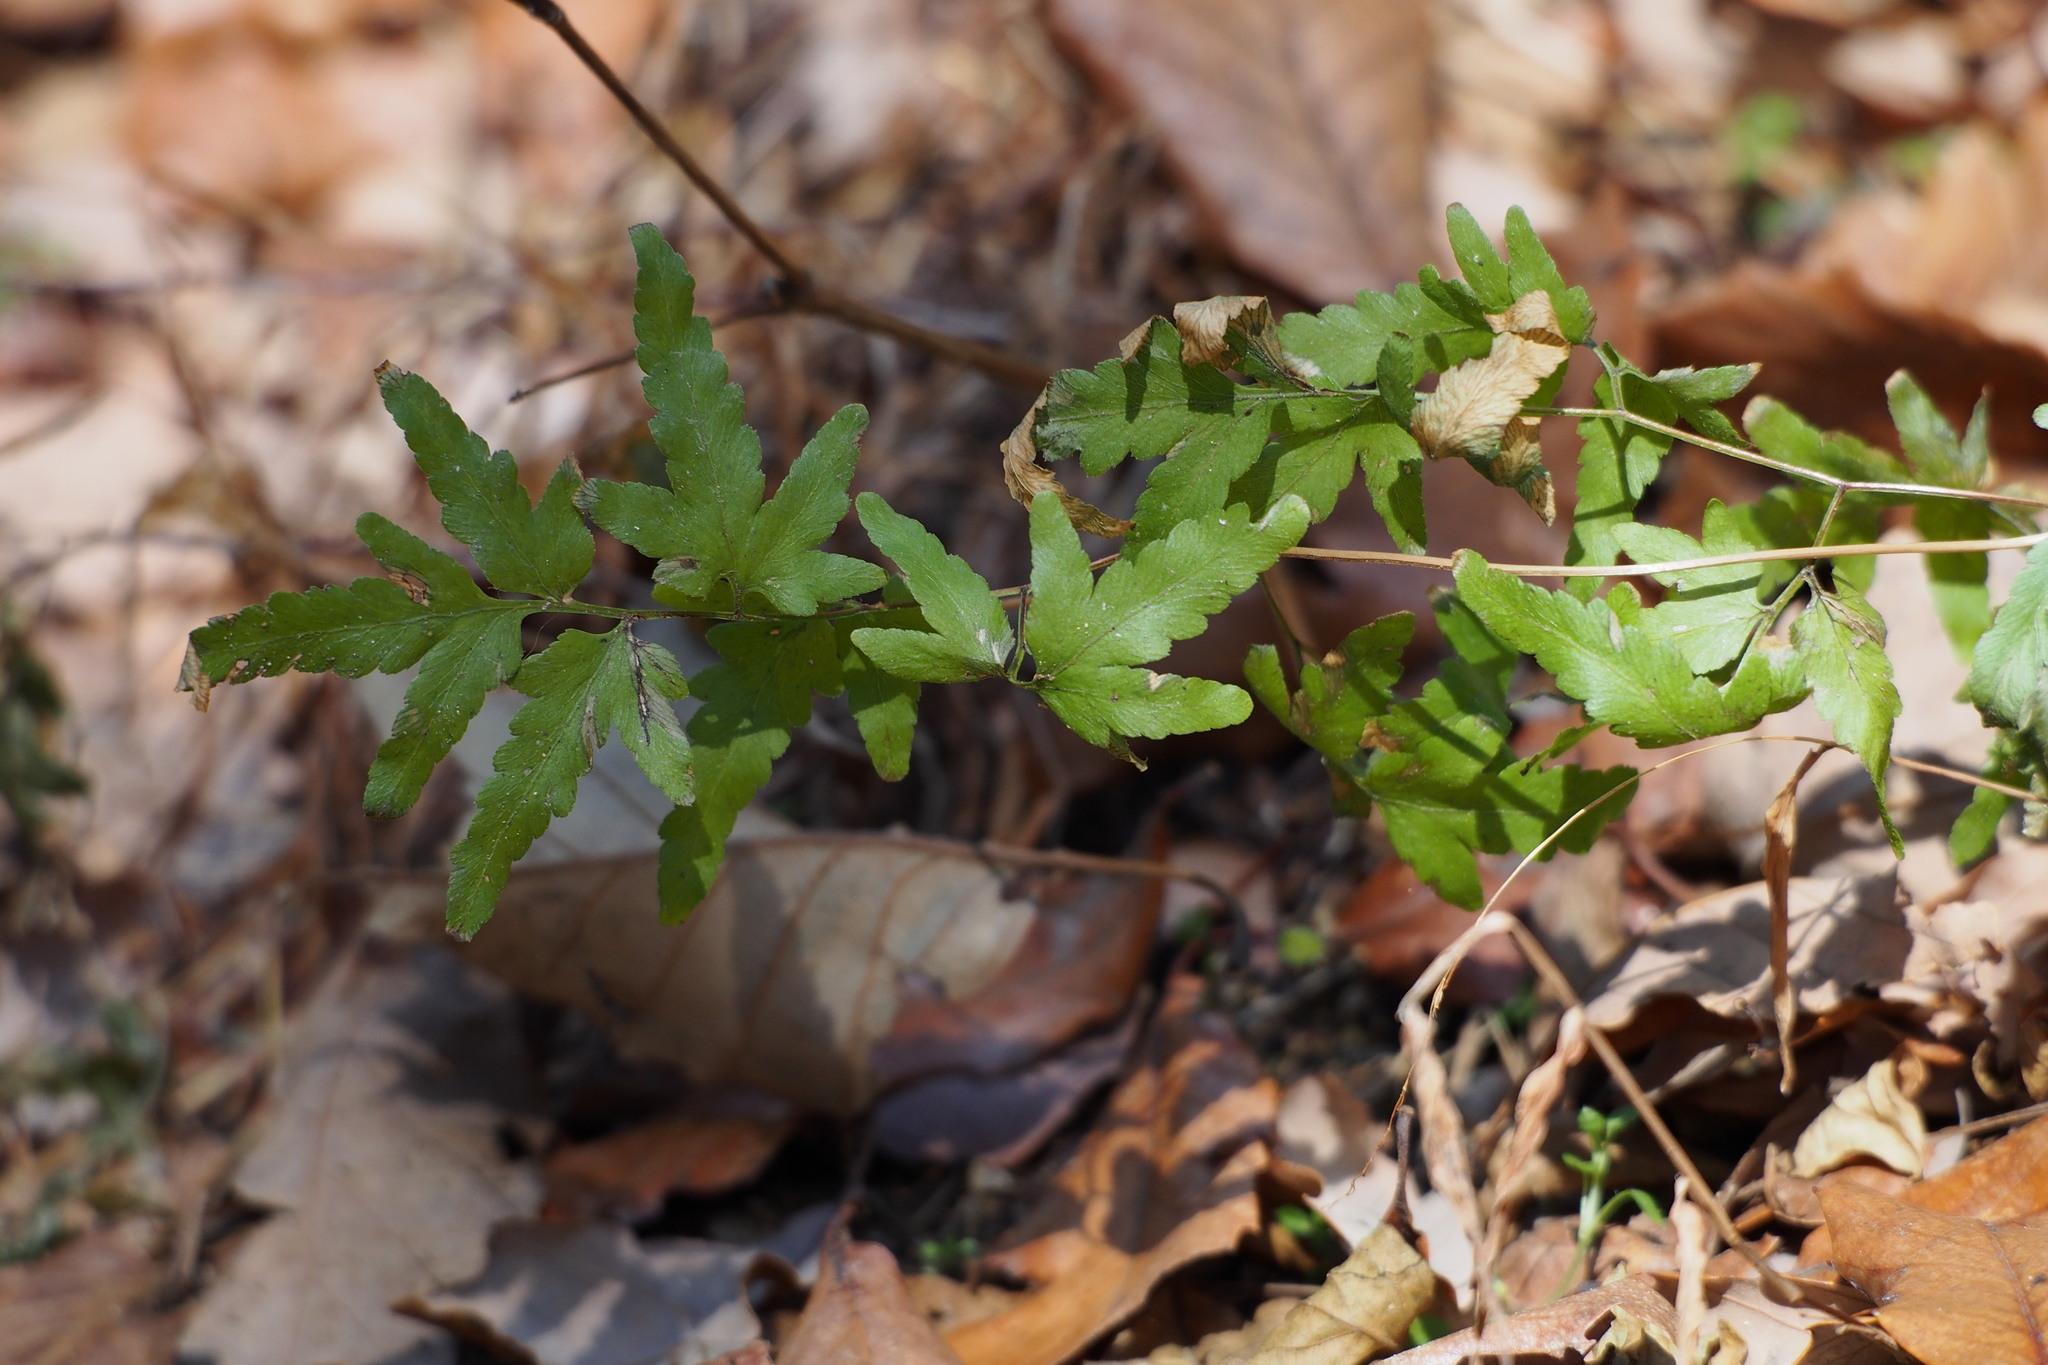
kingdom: Plantae
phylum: Tracheophyta
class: Polypodiopsida
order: Schizaeales
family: Lygodiaceae
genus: Lygodium
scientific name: Lygodium japonicum
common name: Japanese climbing fern
